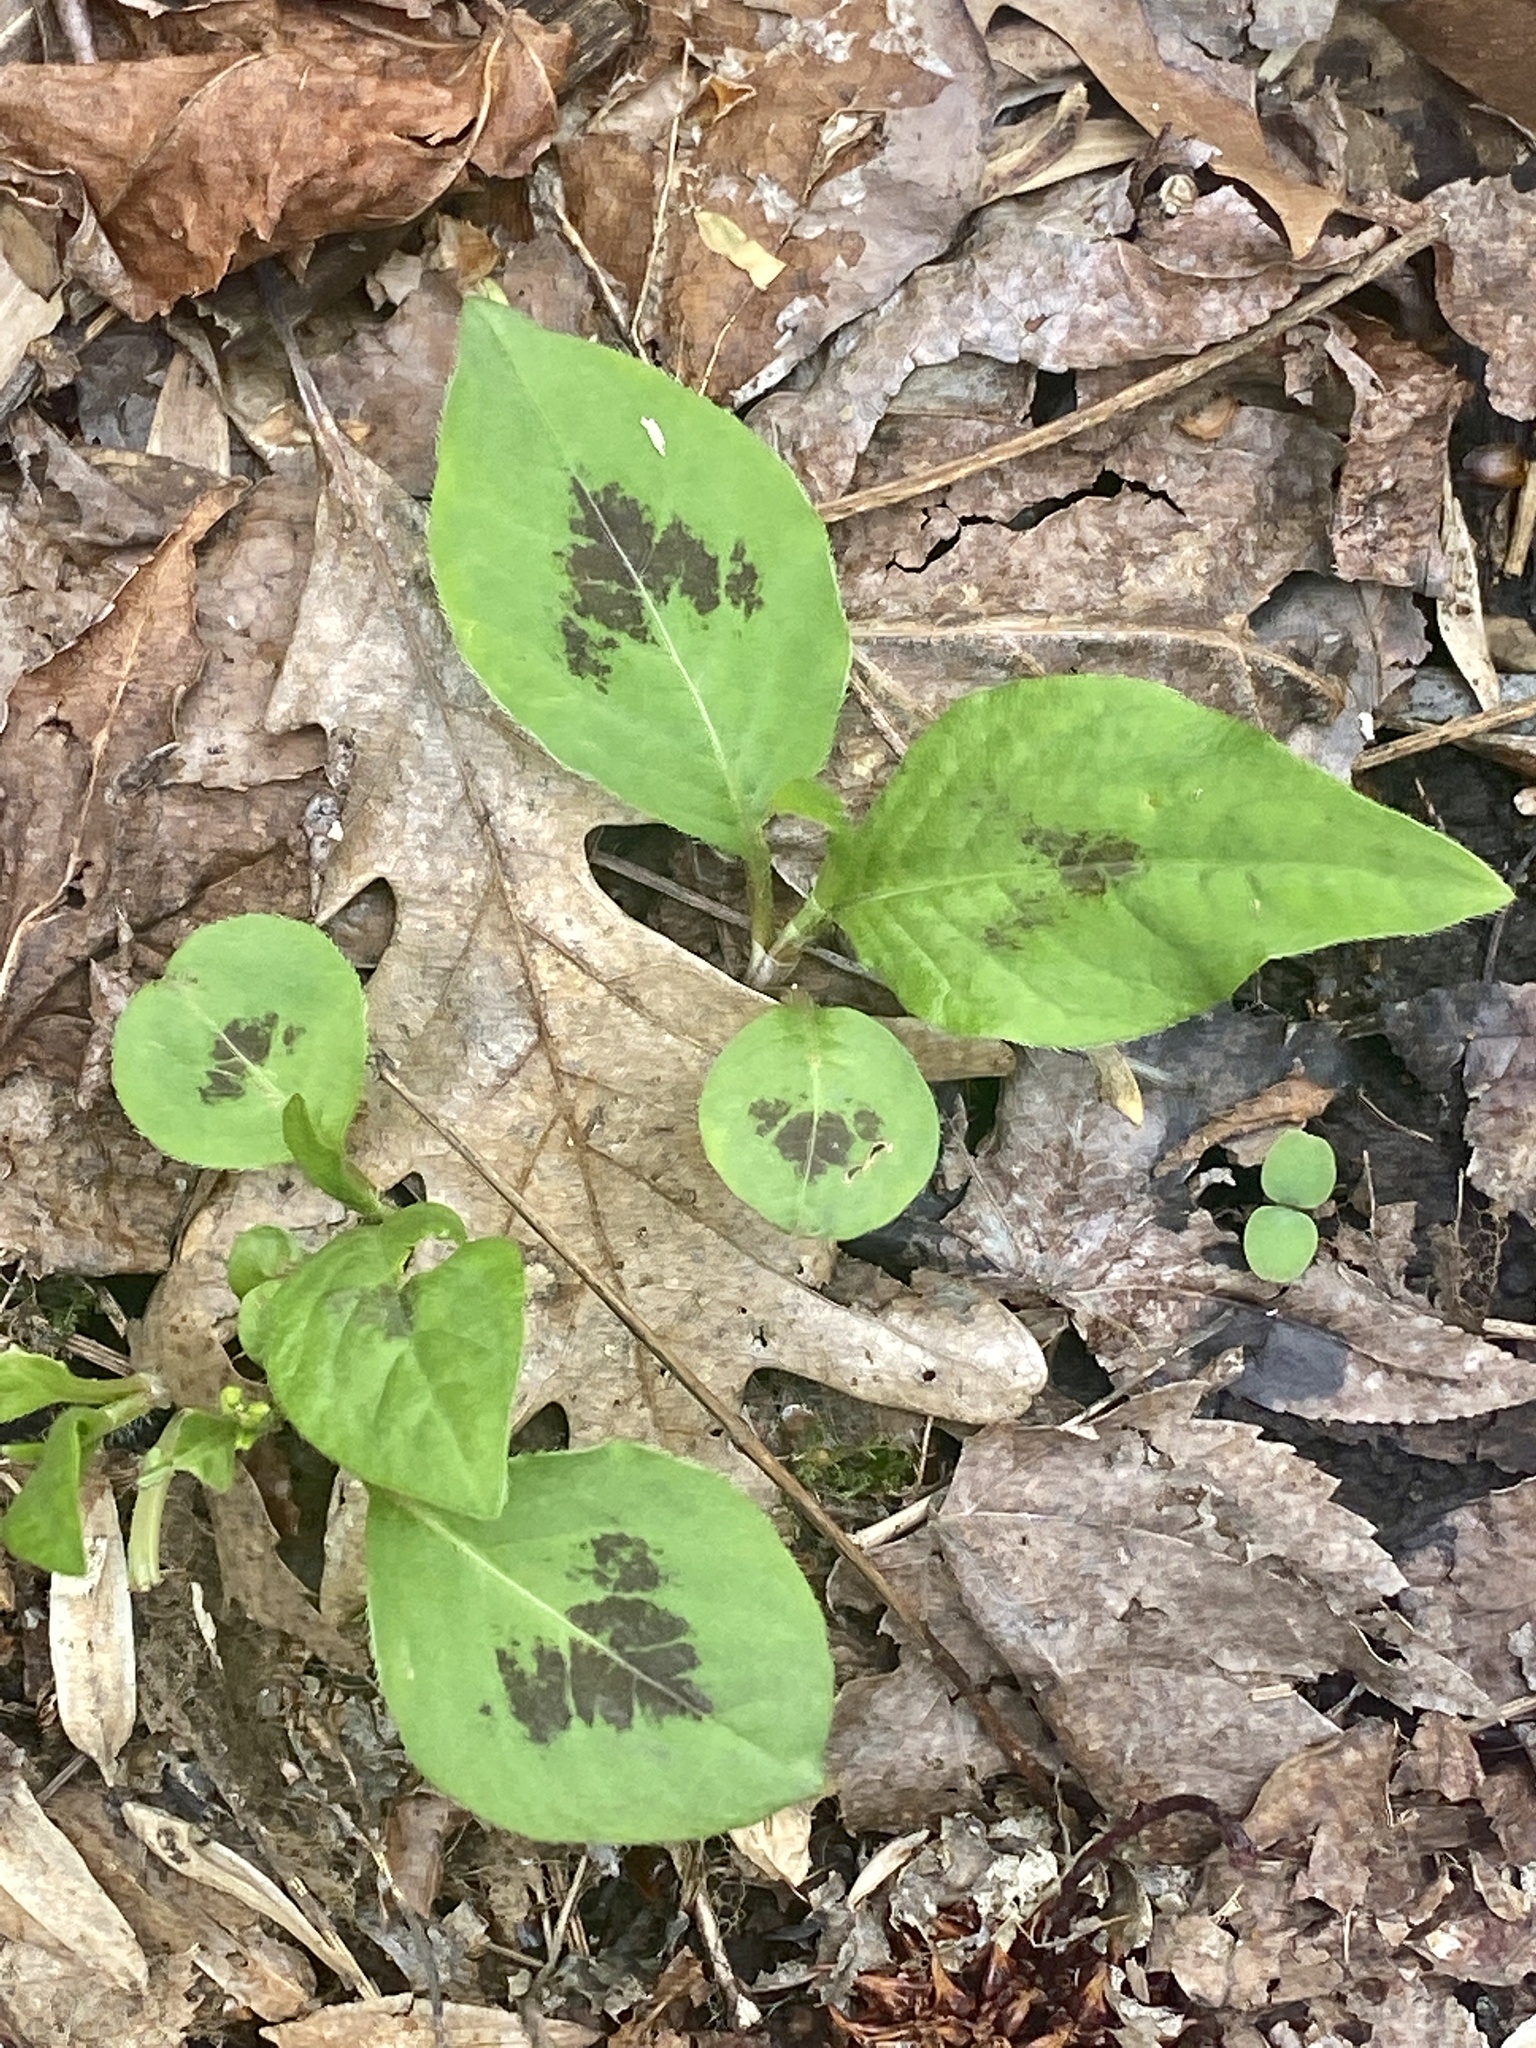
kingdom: Plantae
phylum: Tracheophyta
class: Magnoliopsida
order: Caryophyllales
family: Polygonaceae
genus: Persicaria
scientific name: Persicaria virginiana
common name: Jumpseed
